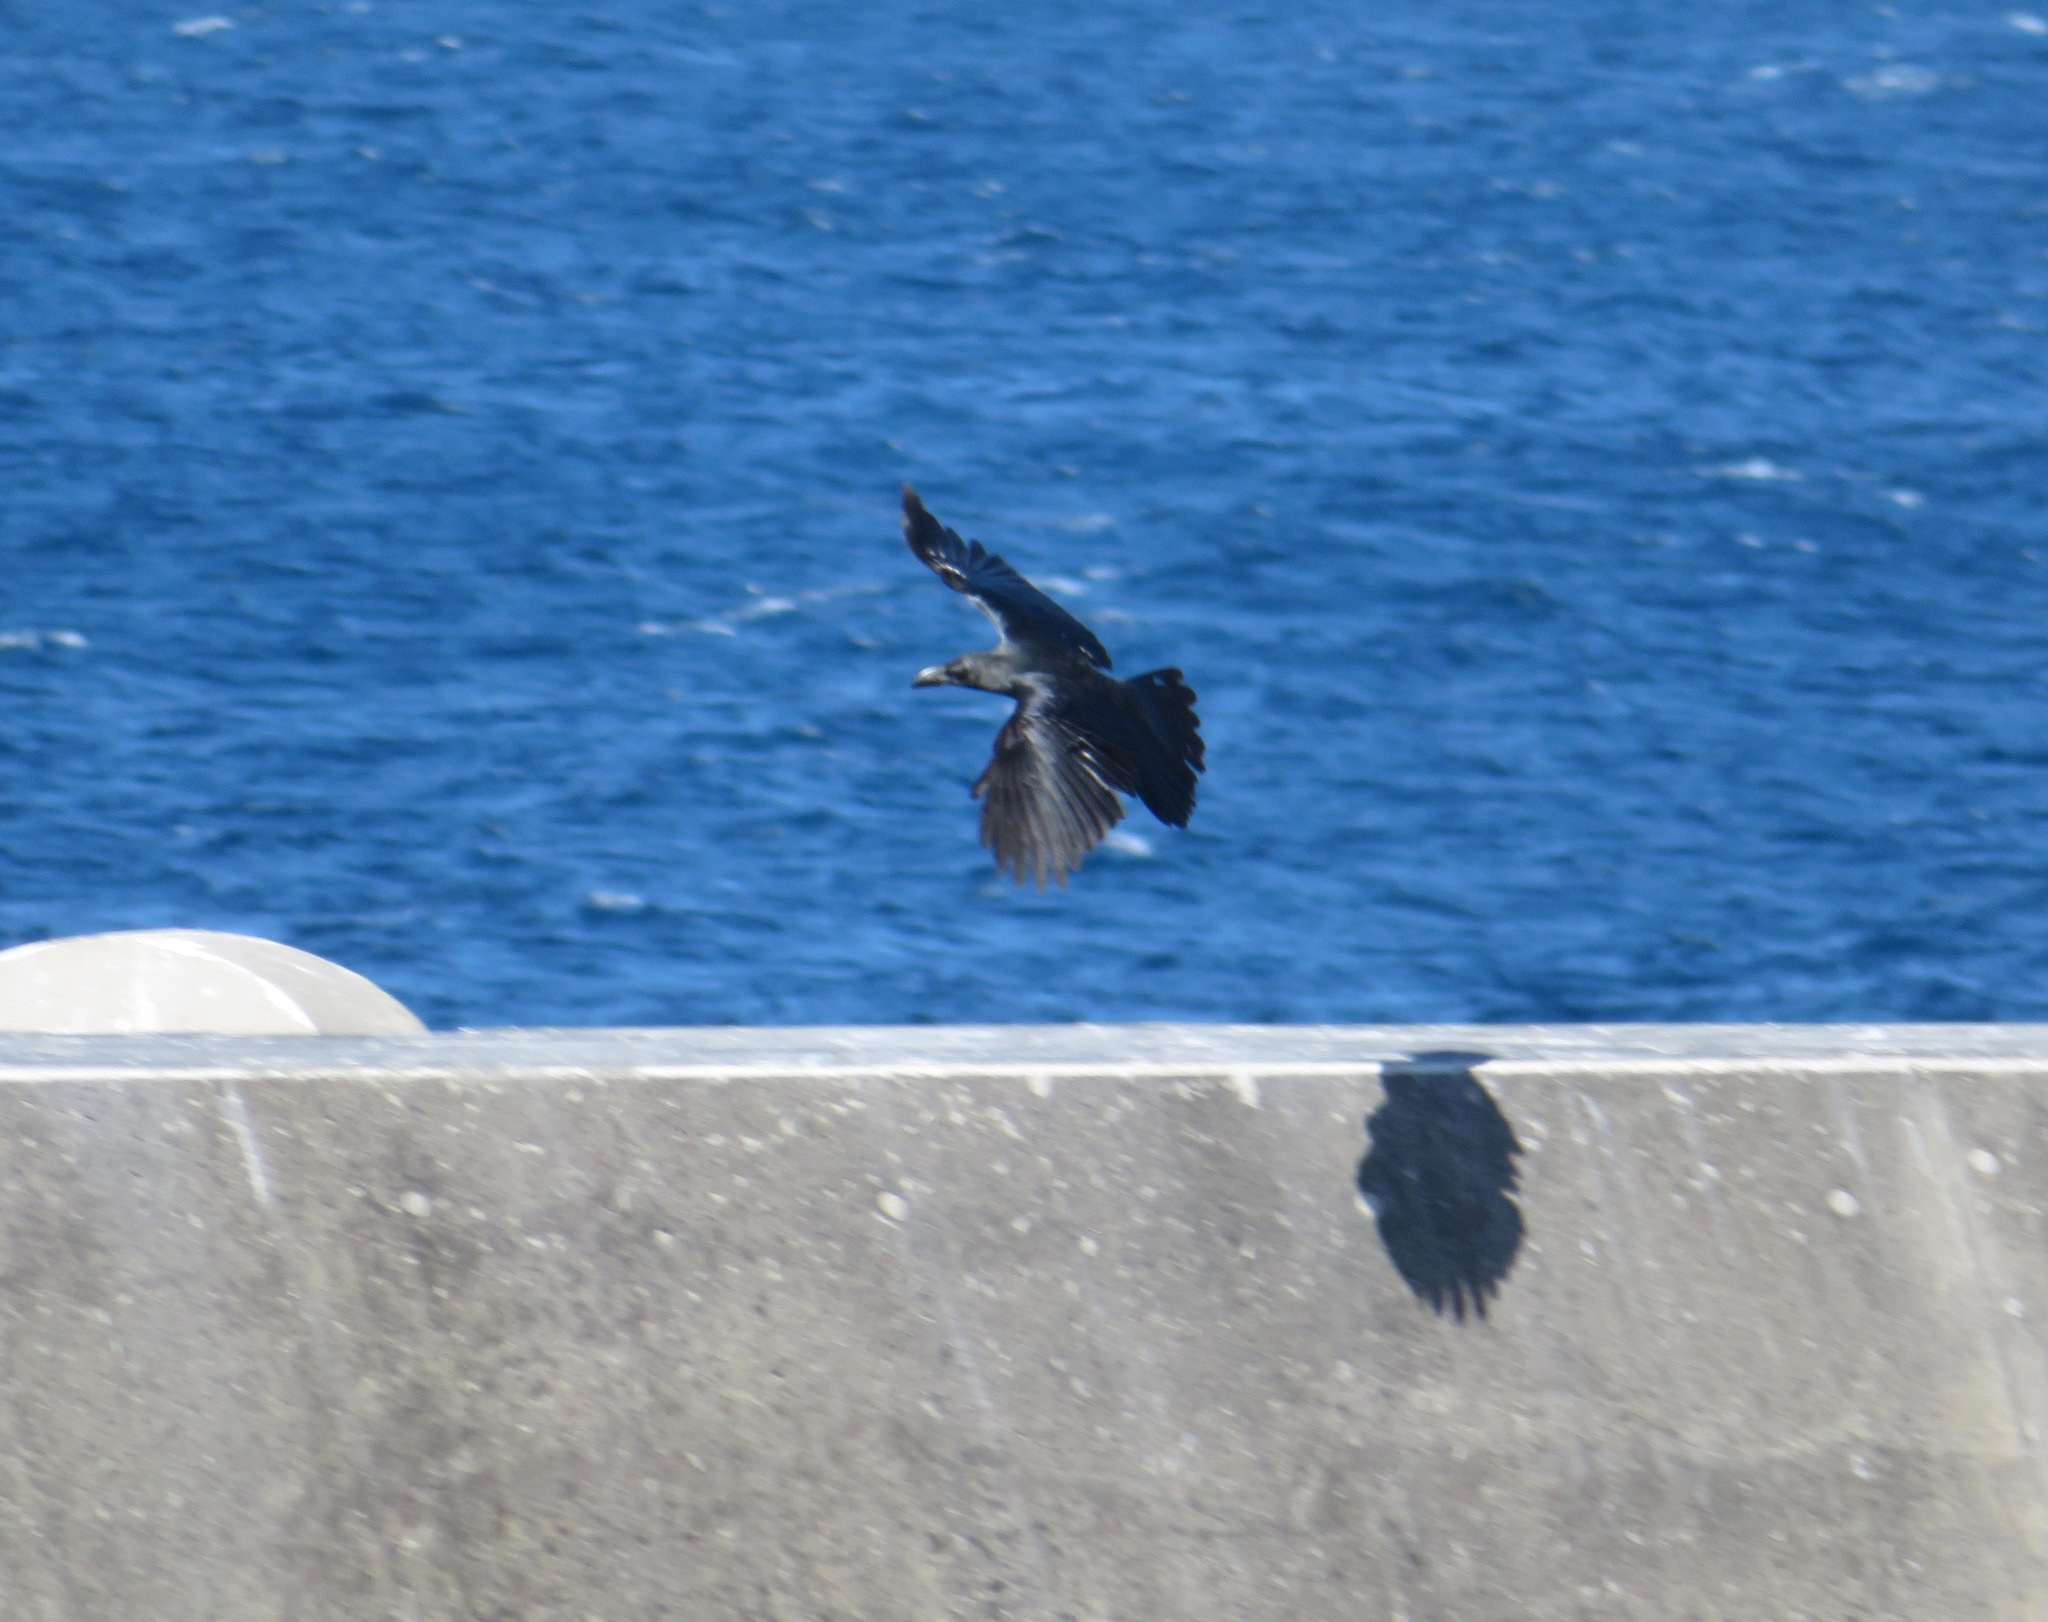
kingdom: Animalia
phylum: Chordata
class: Aves
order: Passeriformes
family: Corvidae
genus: Corvus
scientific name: Corvus macrorhynchos
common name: Large-billed crow
